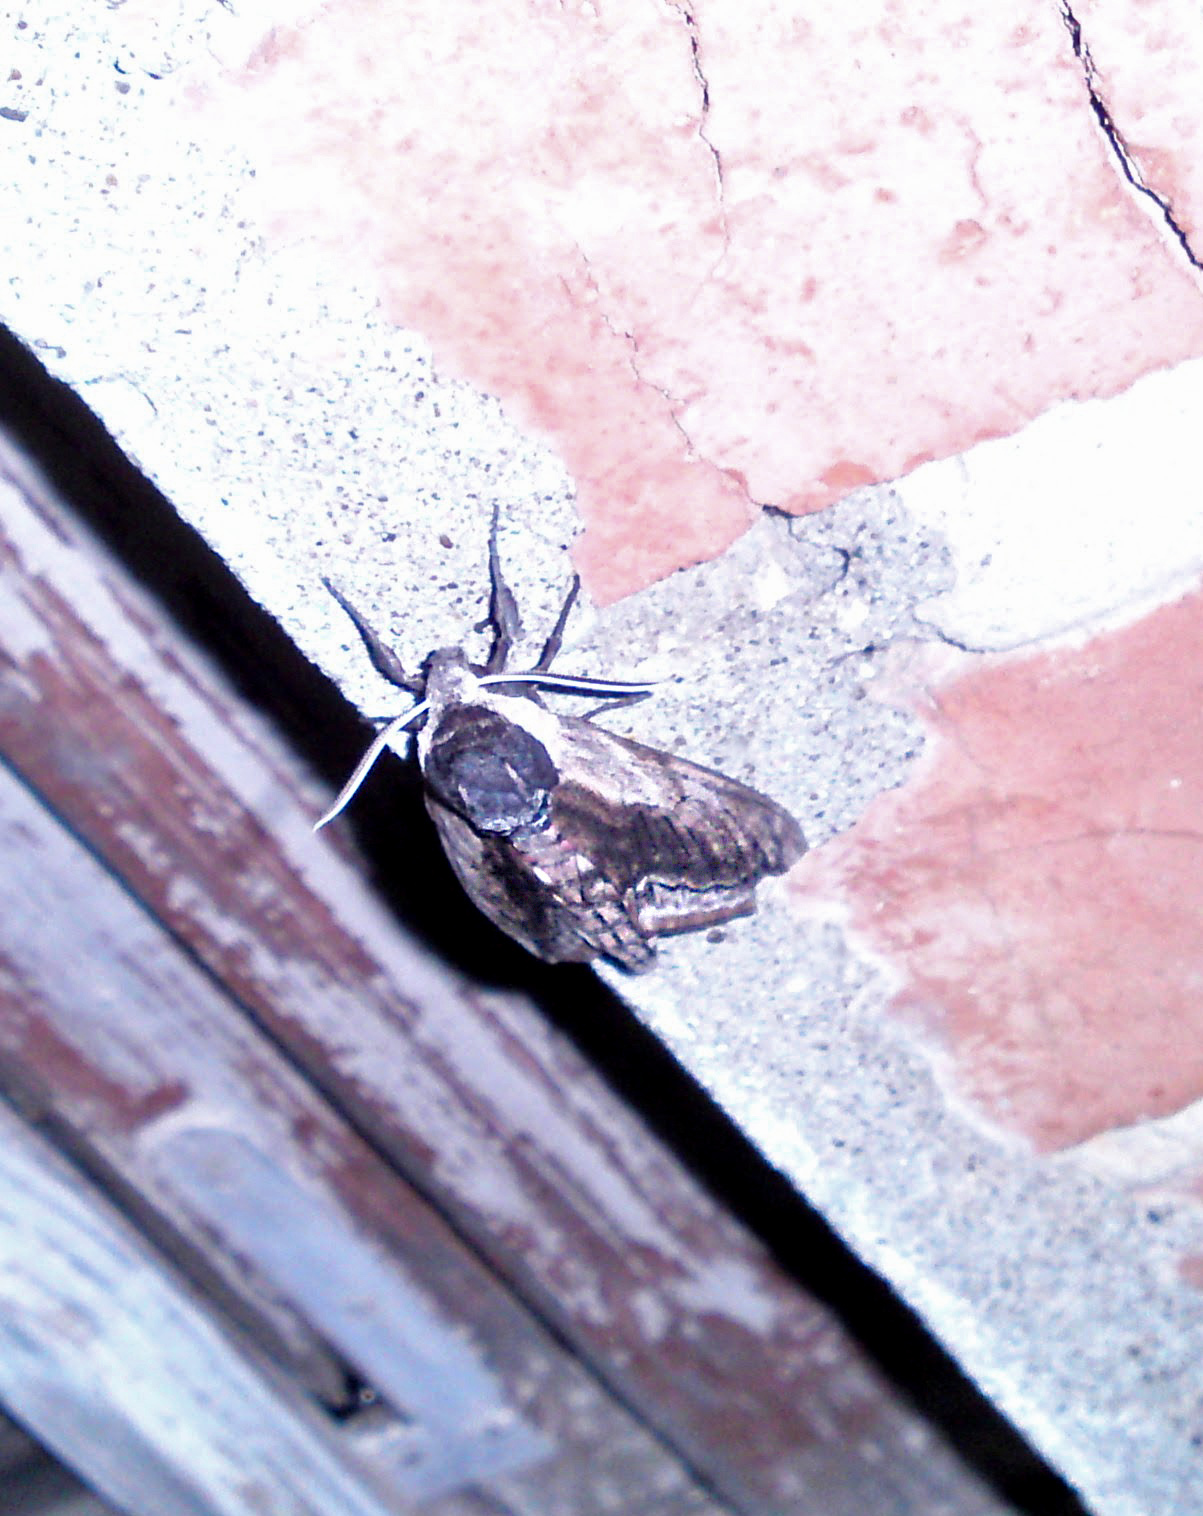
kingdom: Animalia
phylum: Arthropoda
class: Insecta
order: Lepidoptera
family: Sphingidae
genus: Sphinx
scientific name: Sphinx ligustri
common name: Privet hawk-moth
